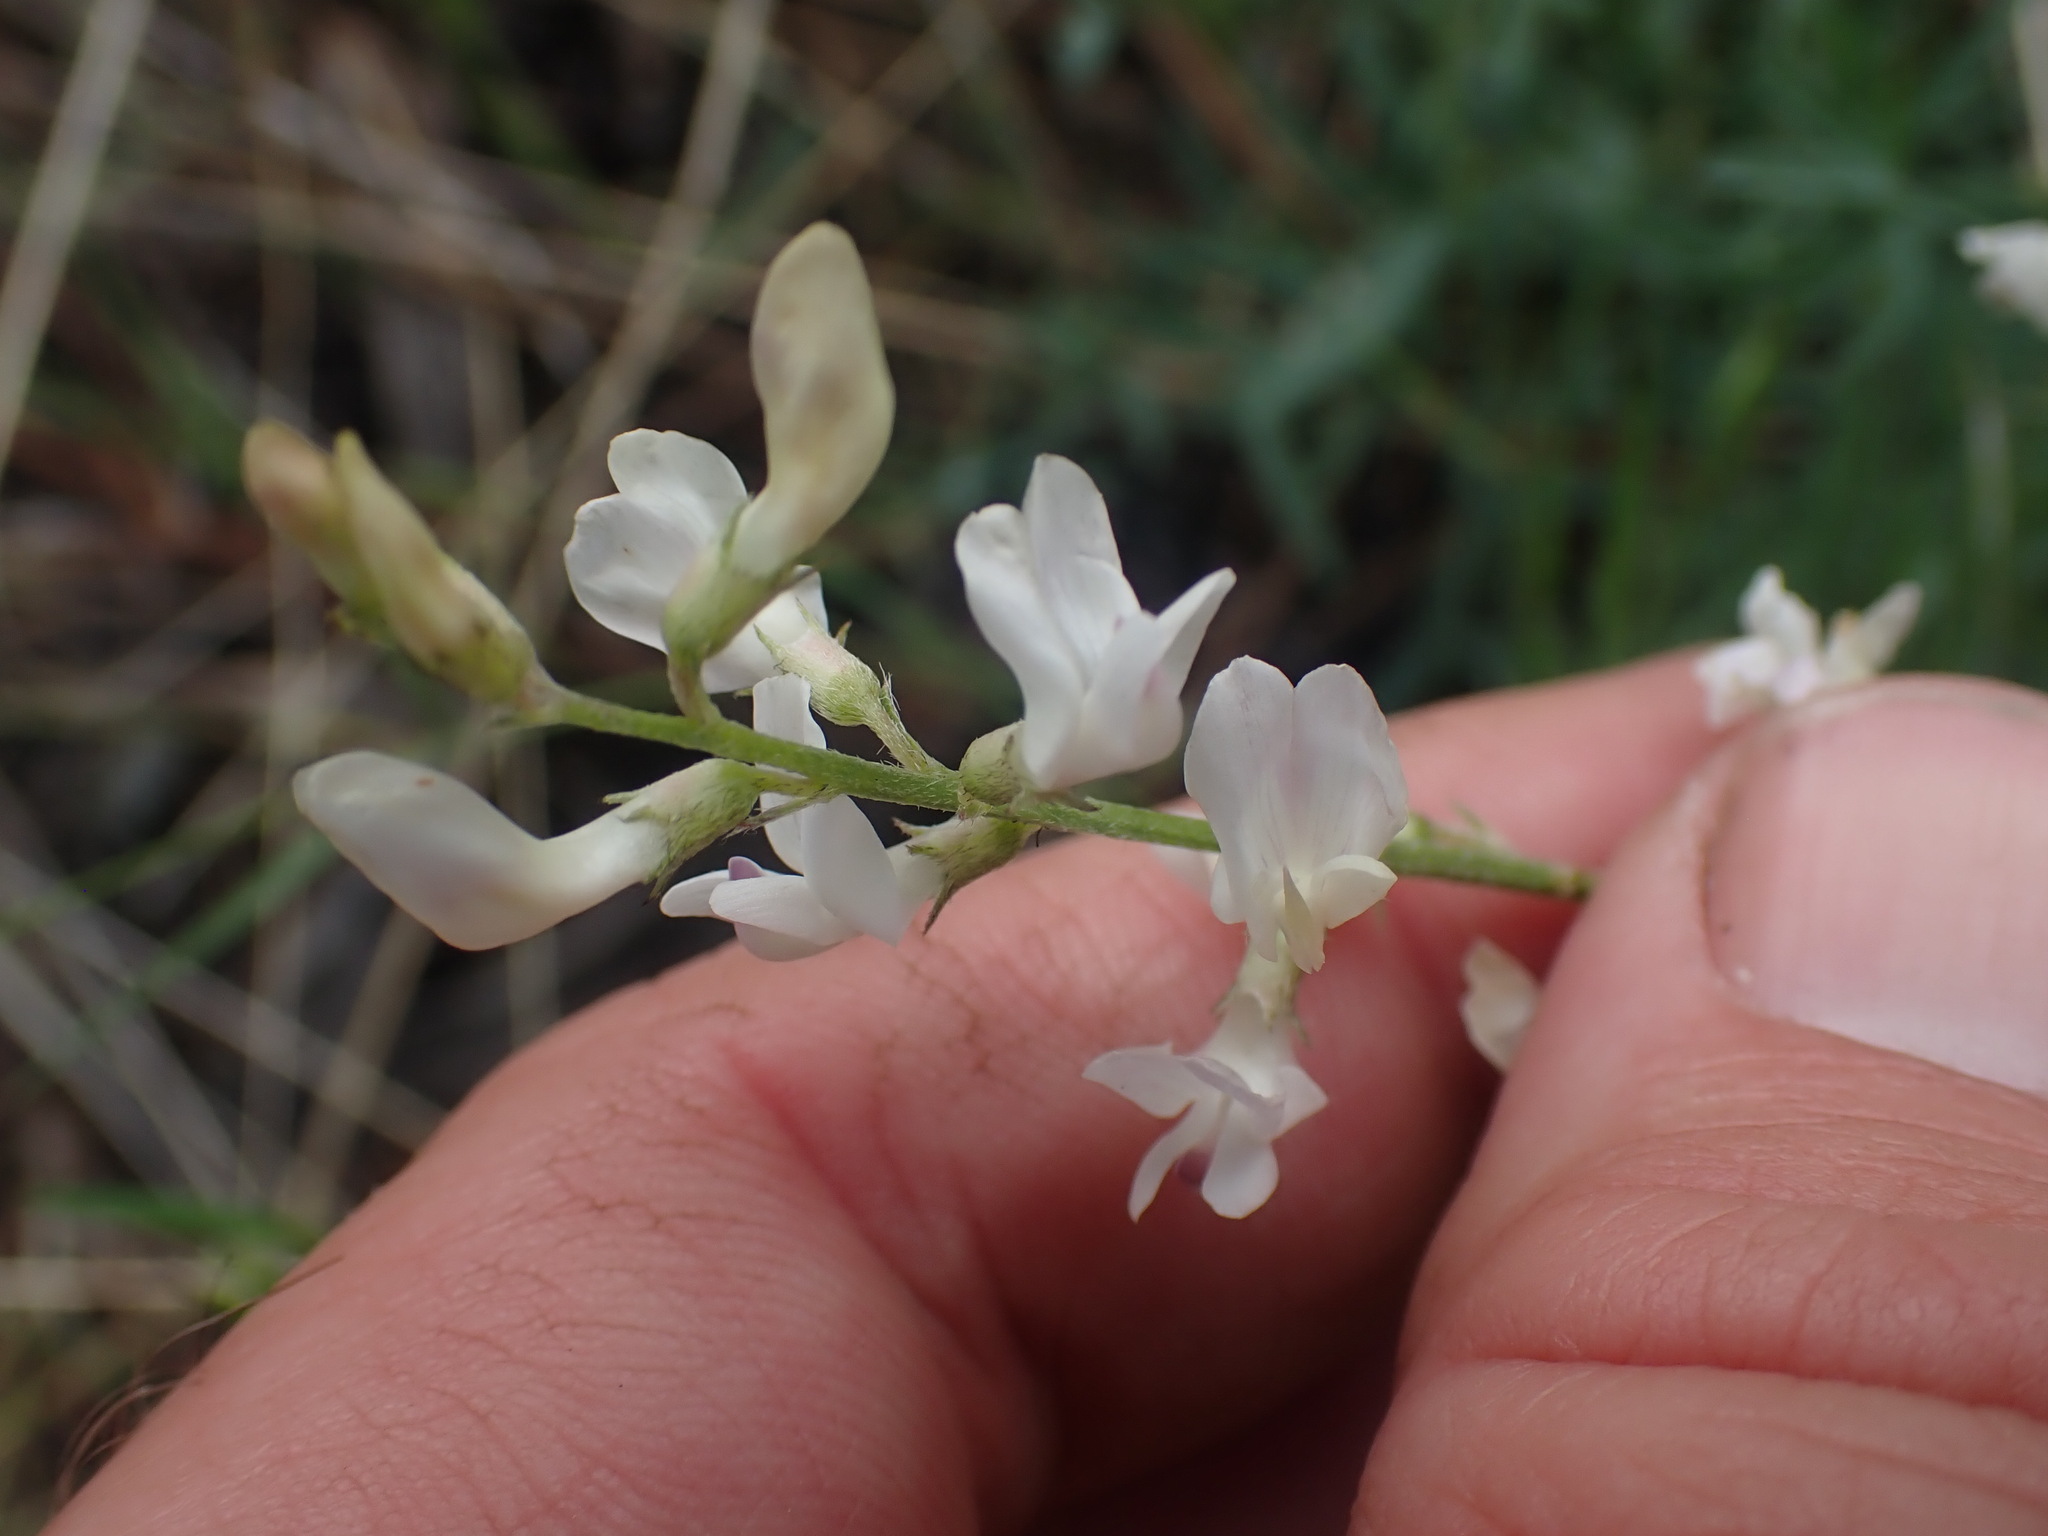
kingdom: Plantae
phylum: Tracheophyta
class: Magnoliopsida
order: Fabales
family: Fabaceae
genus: Astragalus
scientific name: Astragalus miser
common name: Timber milkvetch
